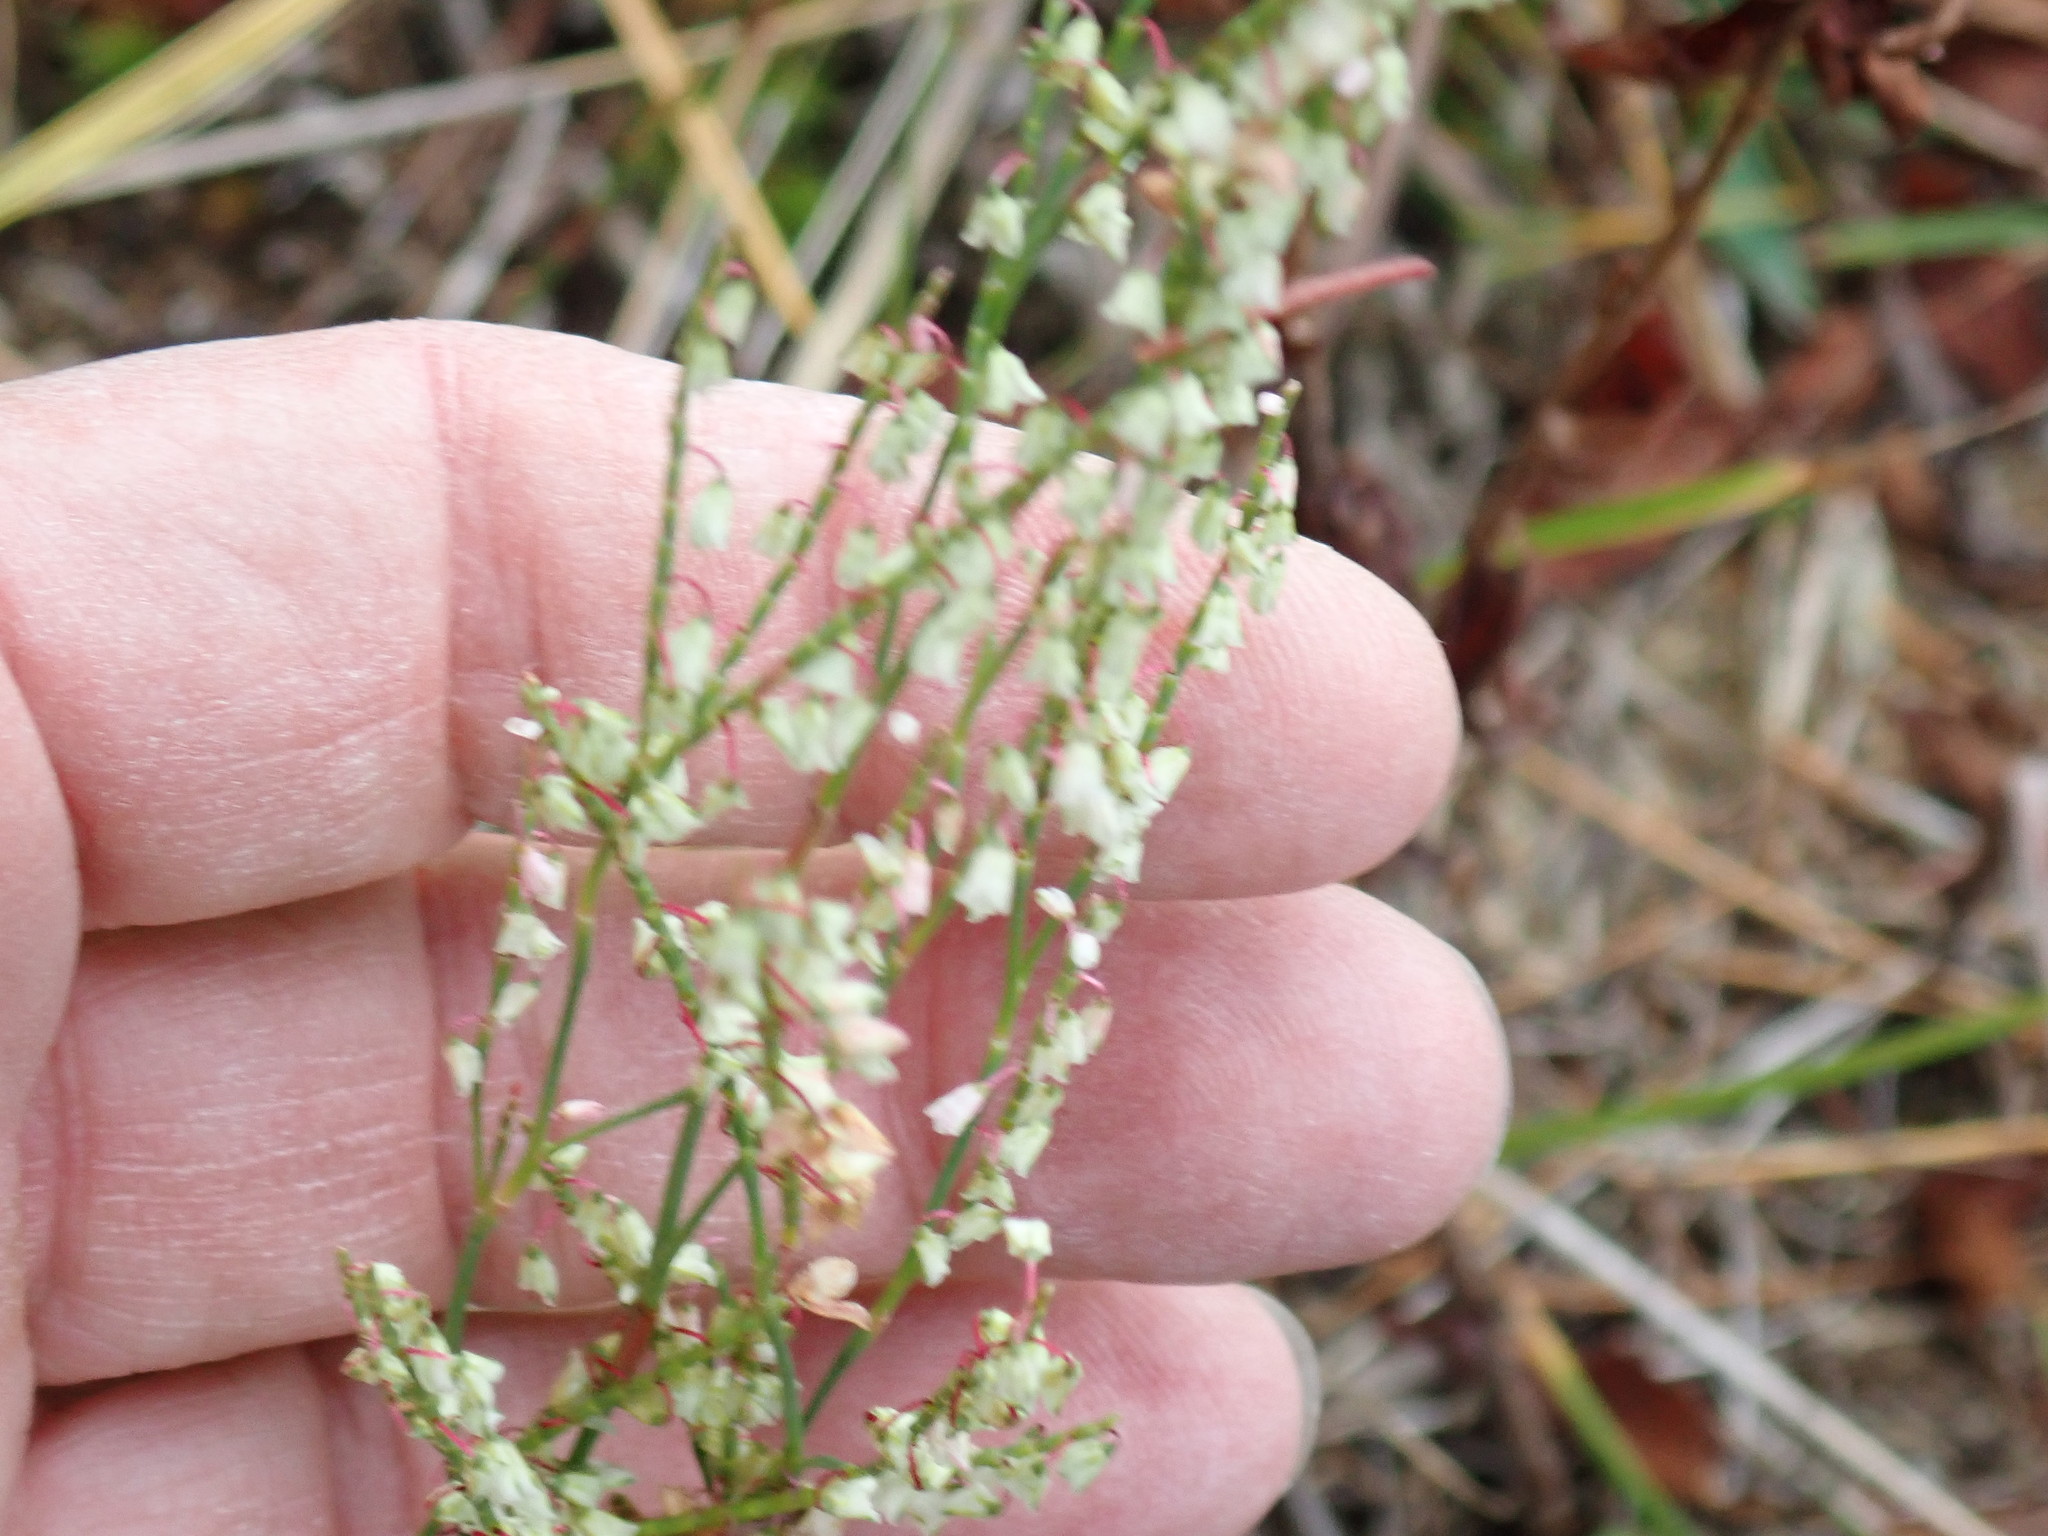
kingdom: Plantae
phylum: Tracheophyta
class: Magnoliopsida
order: Caryophyllales
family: Polygonaceae
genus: Polygonella
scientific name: Polygonella articulata
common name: Coastal jointweed
